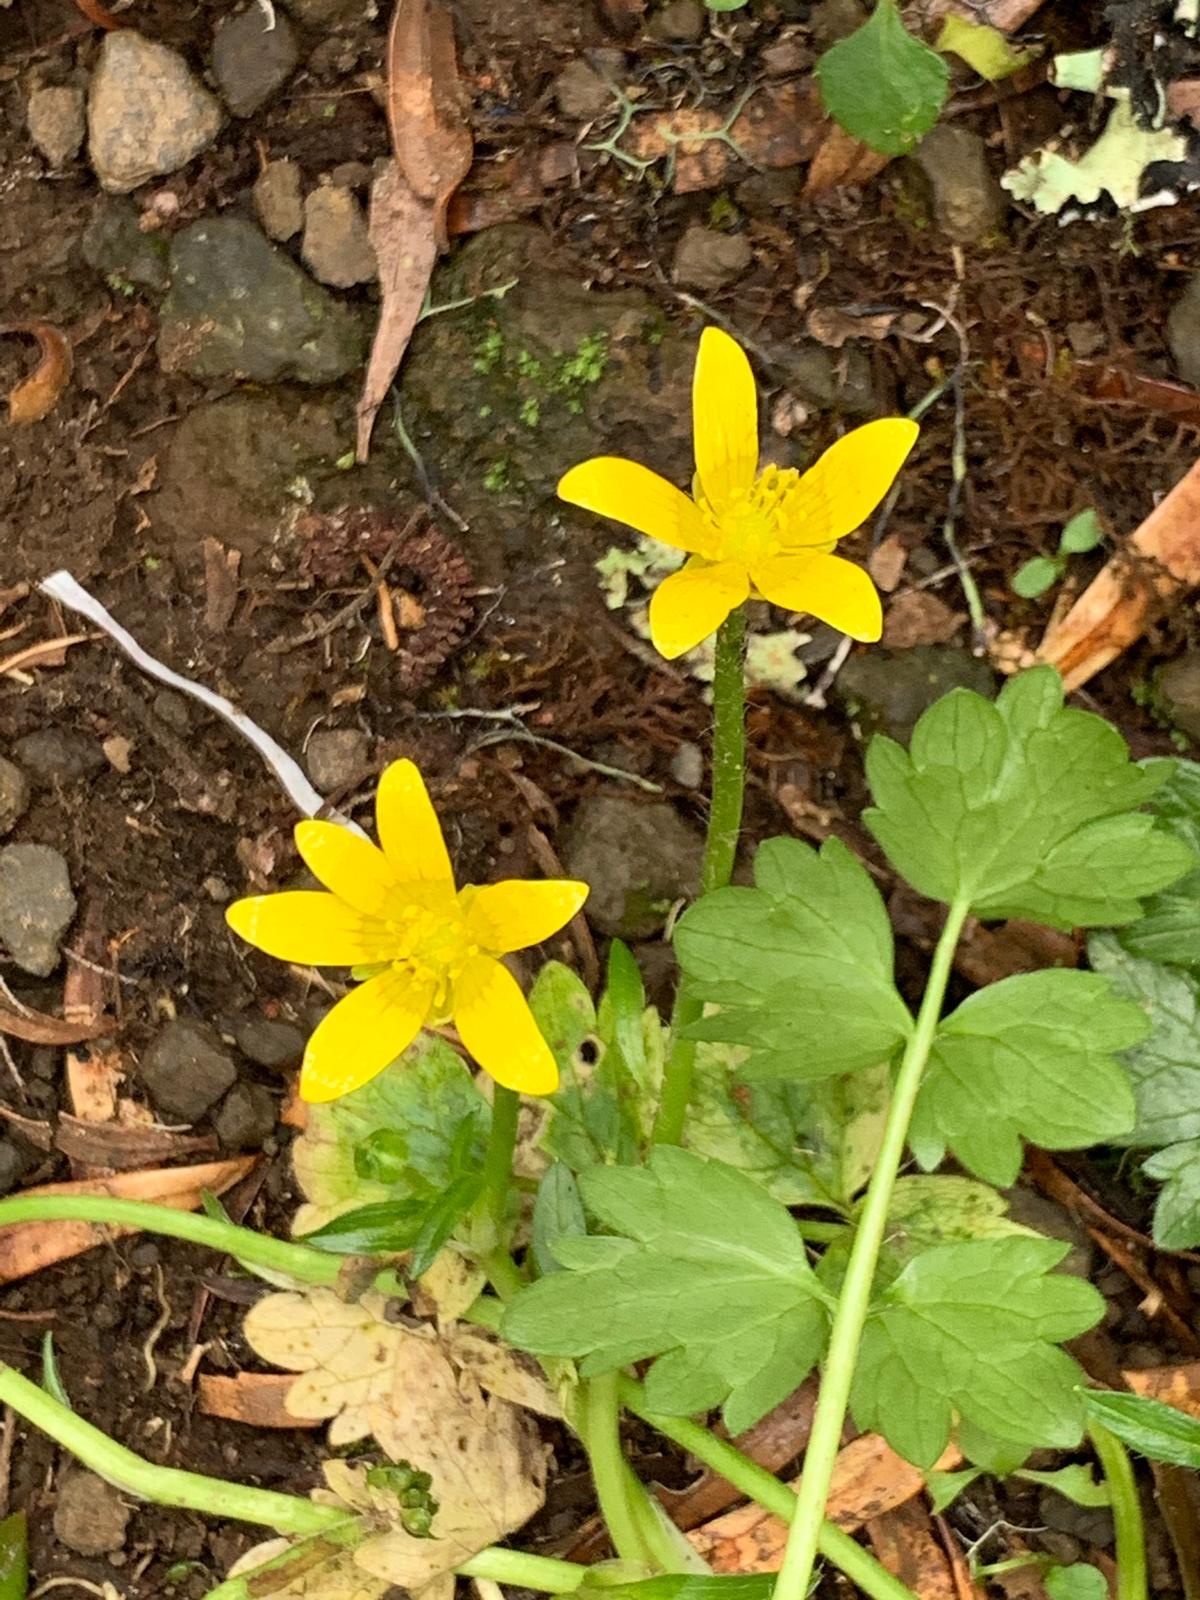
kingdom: Plantae
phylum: Tracheophyta
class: Magnoliopsida
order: Ranunculales
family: Ranunculaceae
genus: Ranunculus
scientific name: Ranunculus oreophytus
